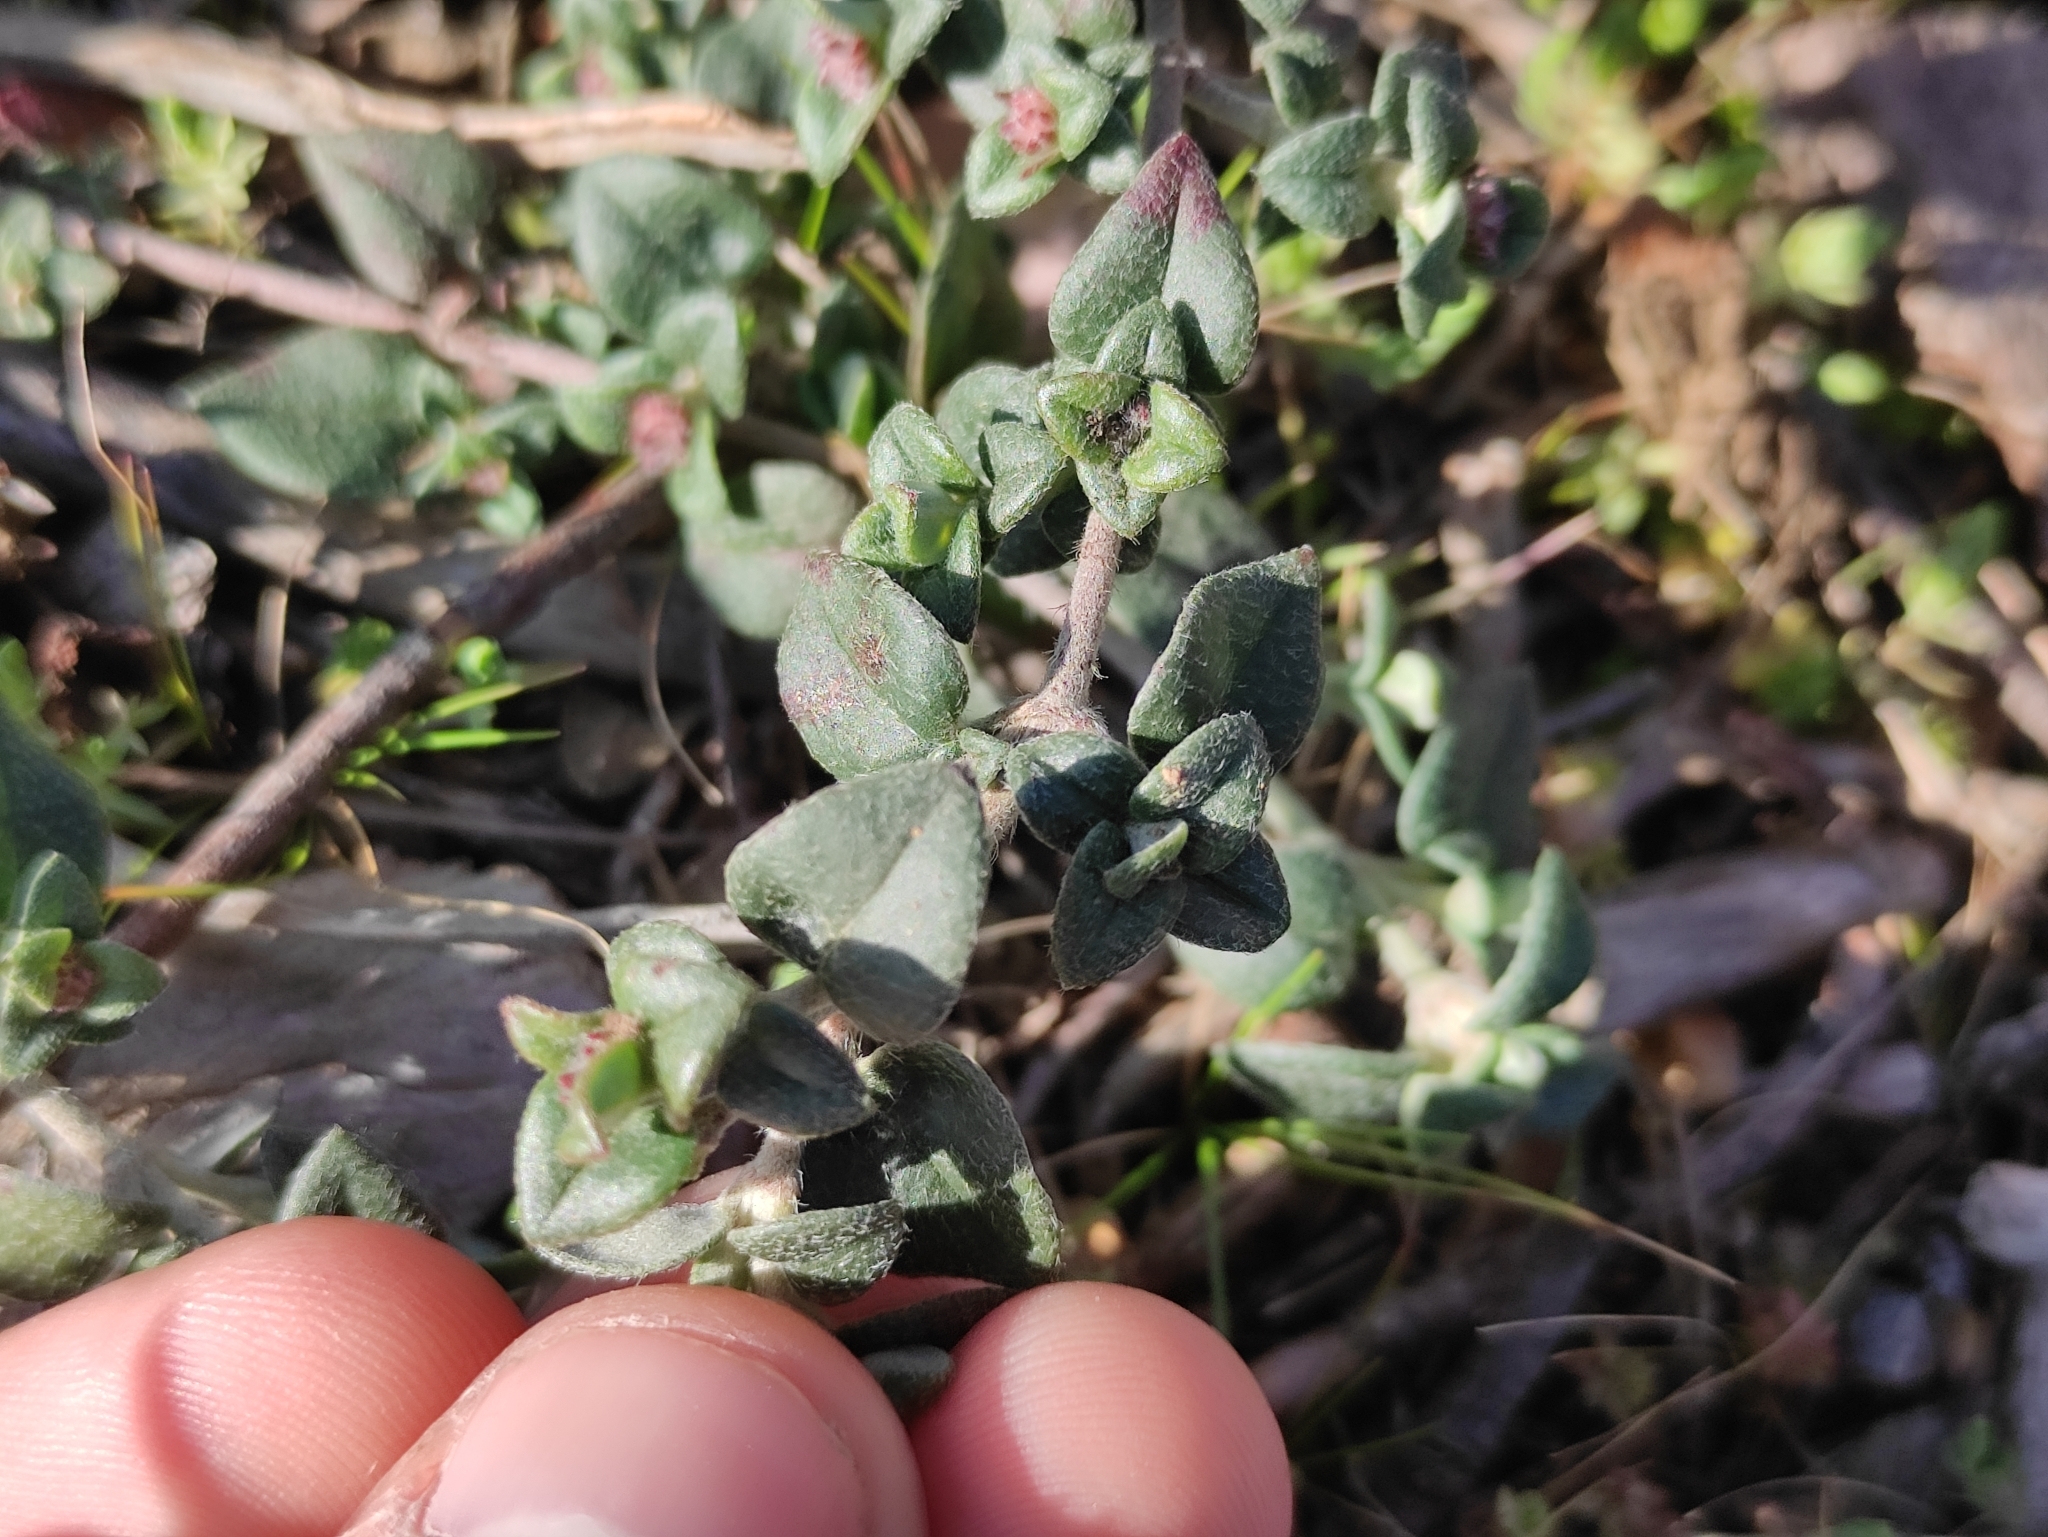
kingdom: Plantae
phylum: Tracheophyta
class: Magnoliopsida
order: Malvales
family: Cistaceae
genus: Helianthemum
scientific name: Helianthemum marifolium
